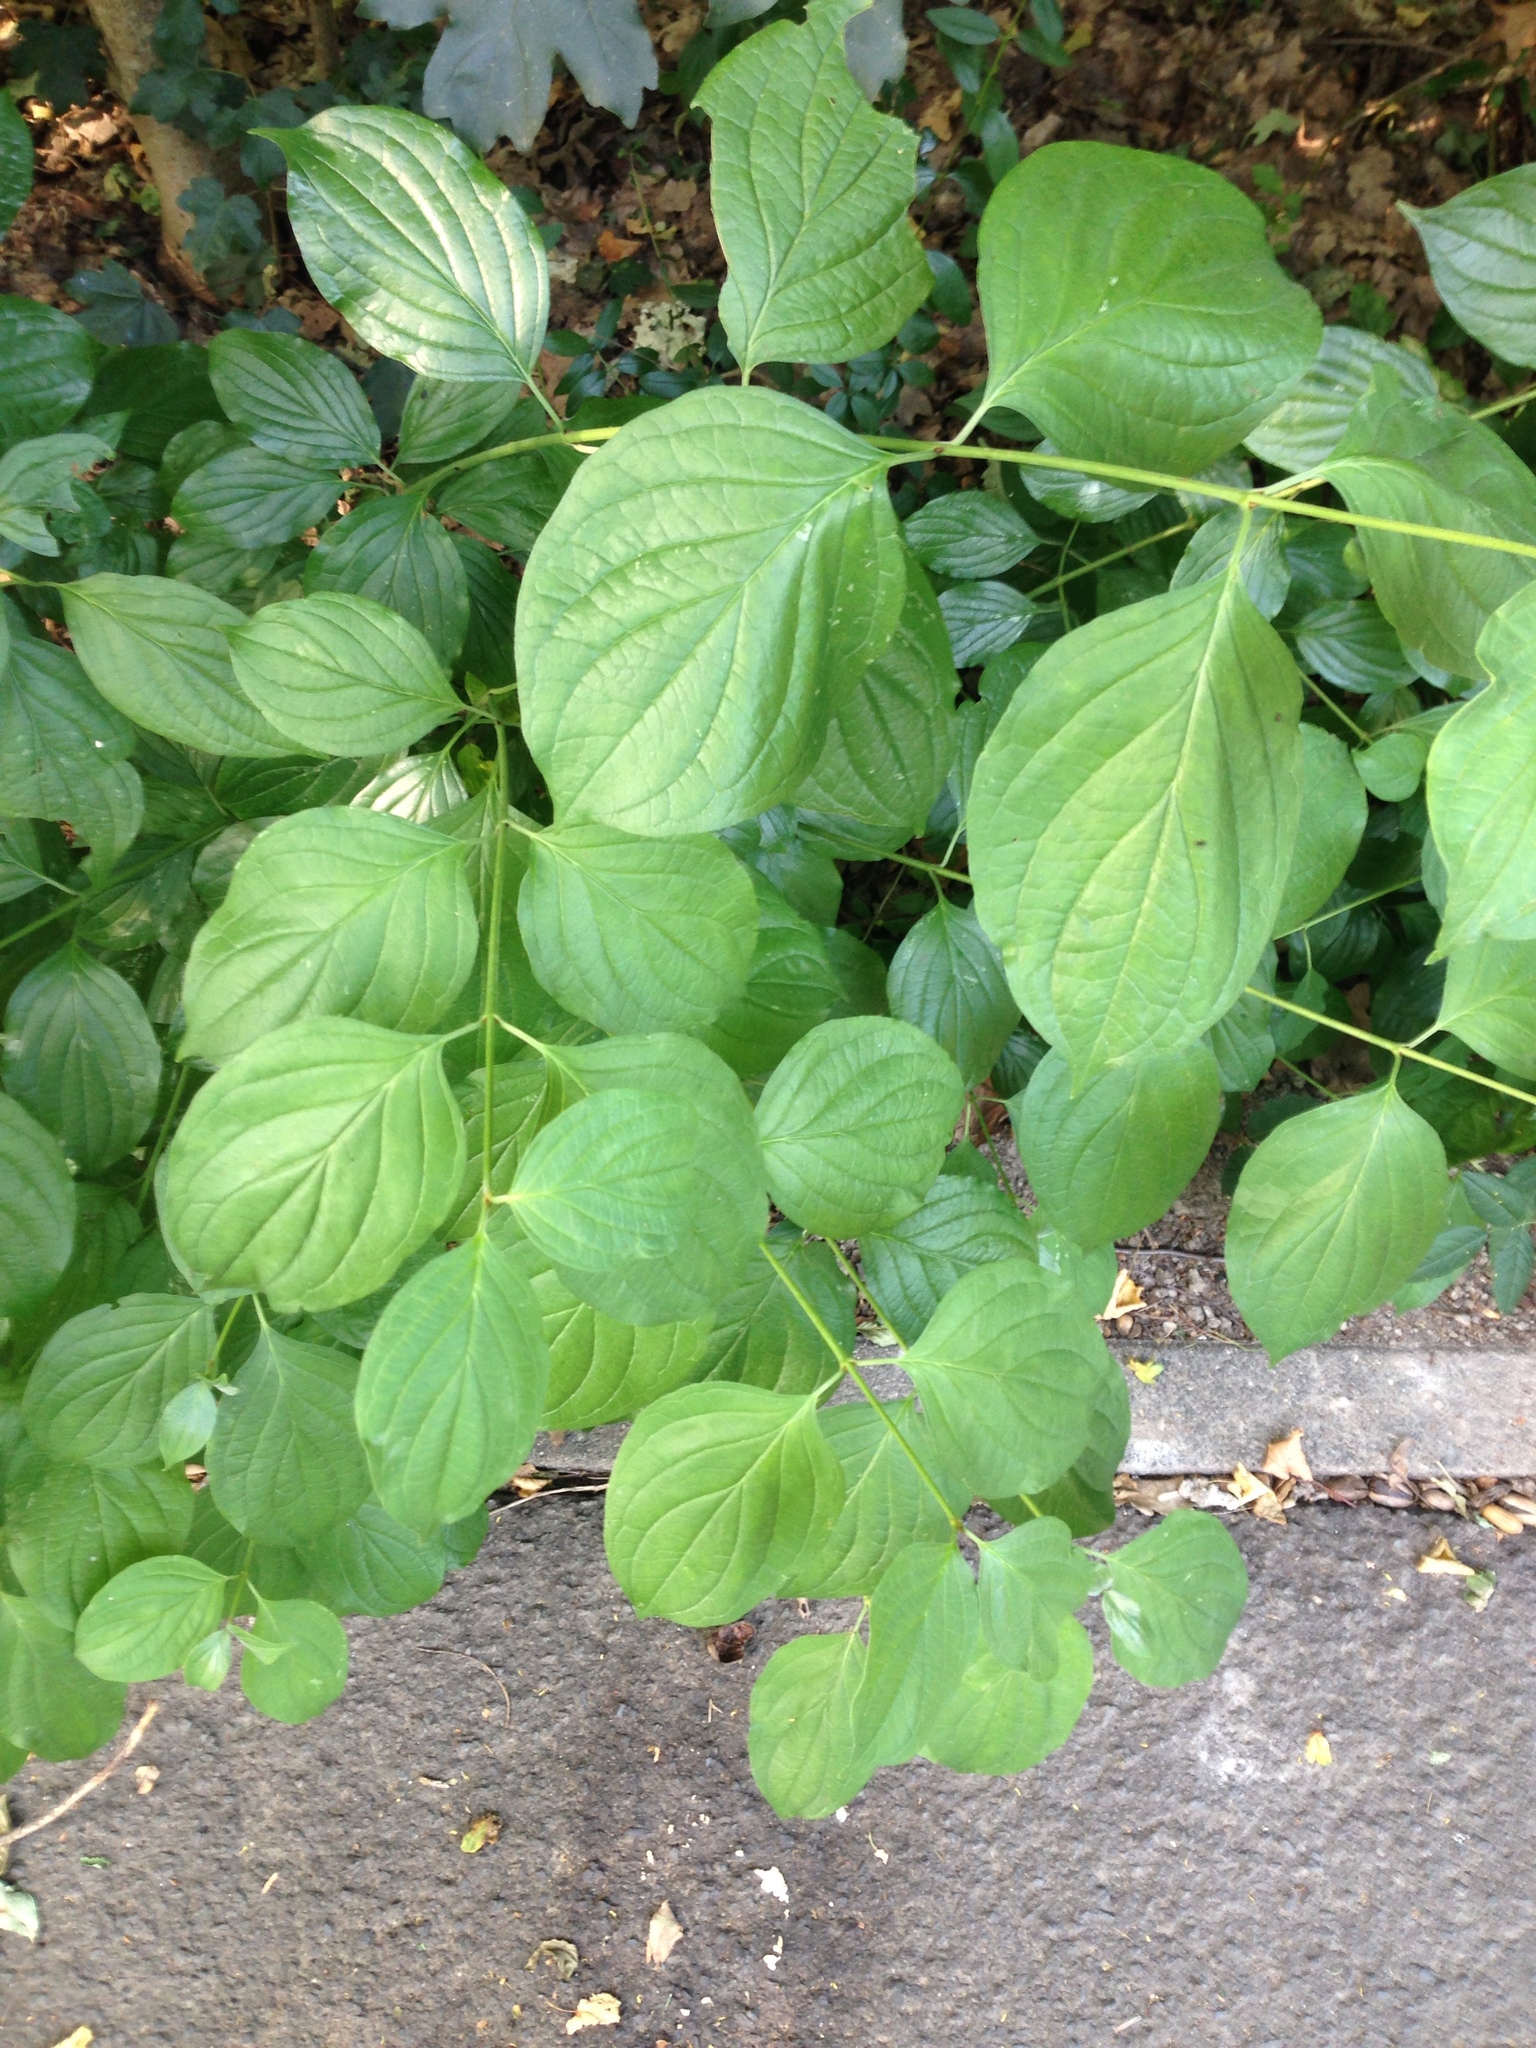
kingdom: Plantae
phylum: Tracheophyta
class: Magnoliopsida
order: Cornales
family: Cornaceae
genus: Cornus
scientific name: Cornus sanguinea
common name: Dogwood
